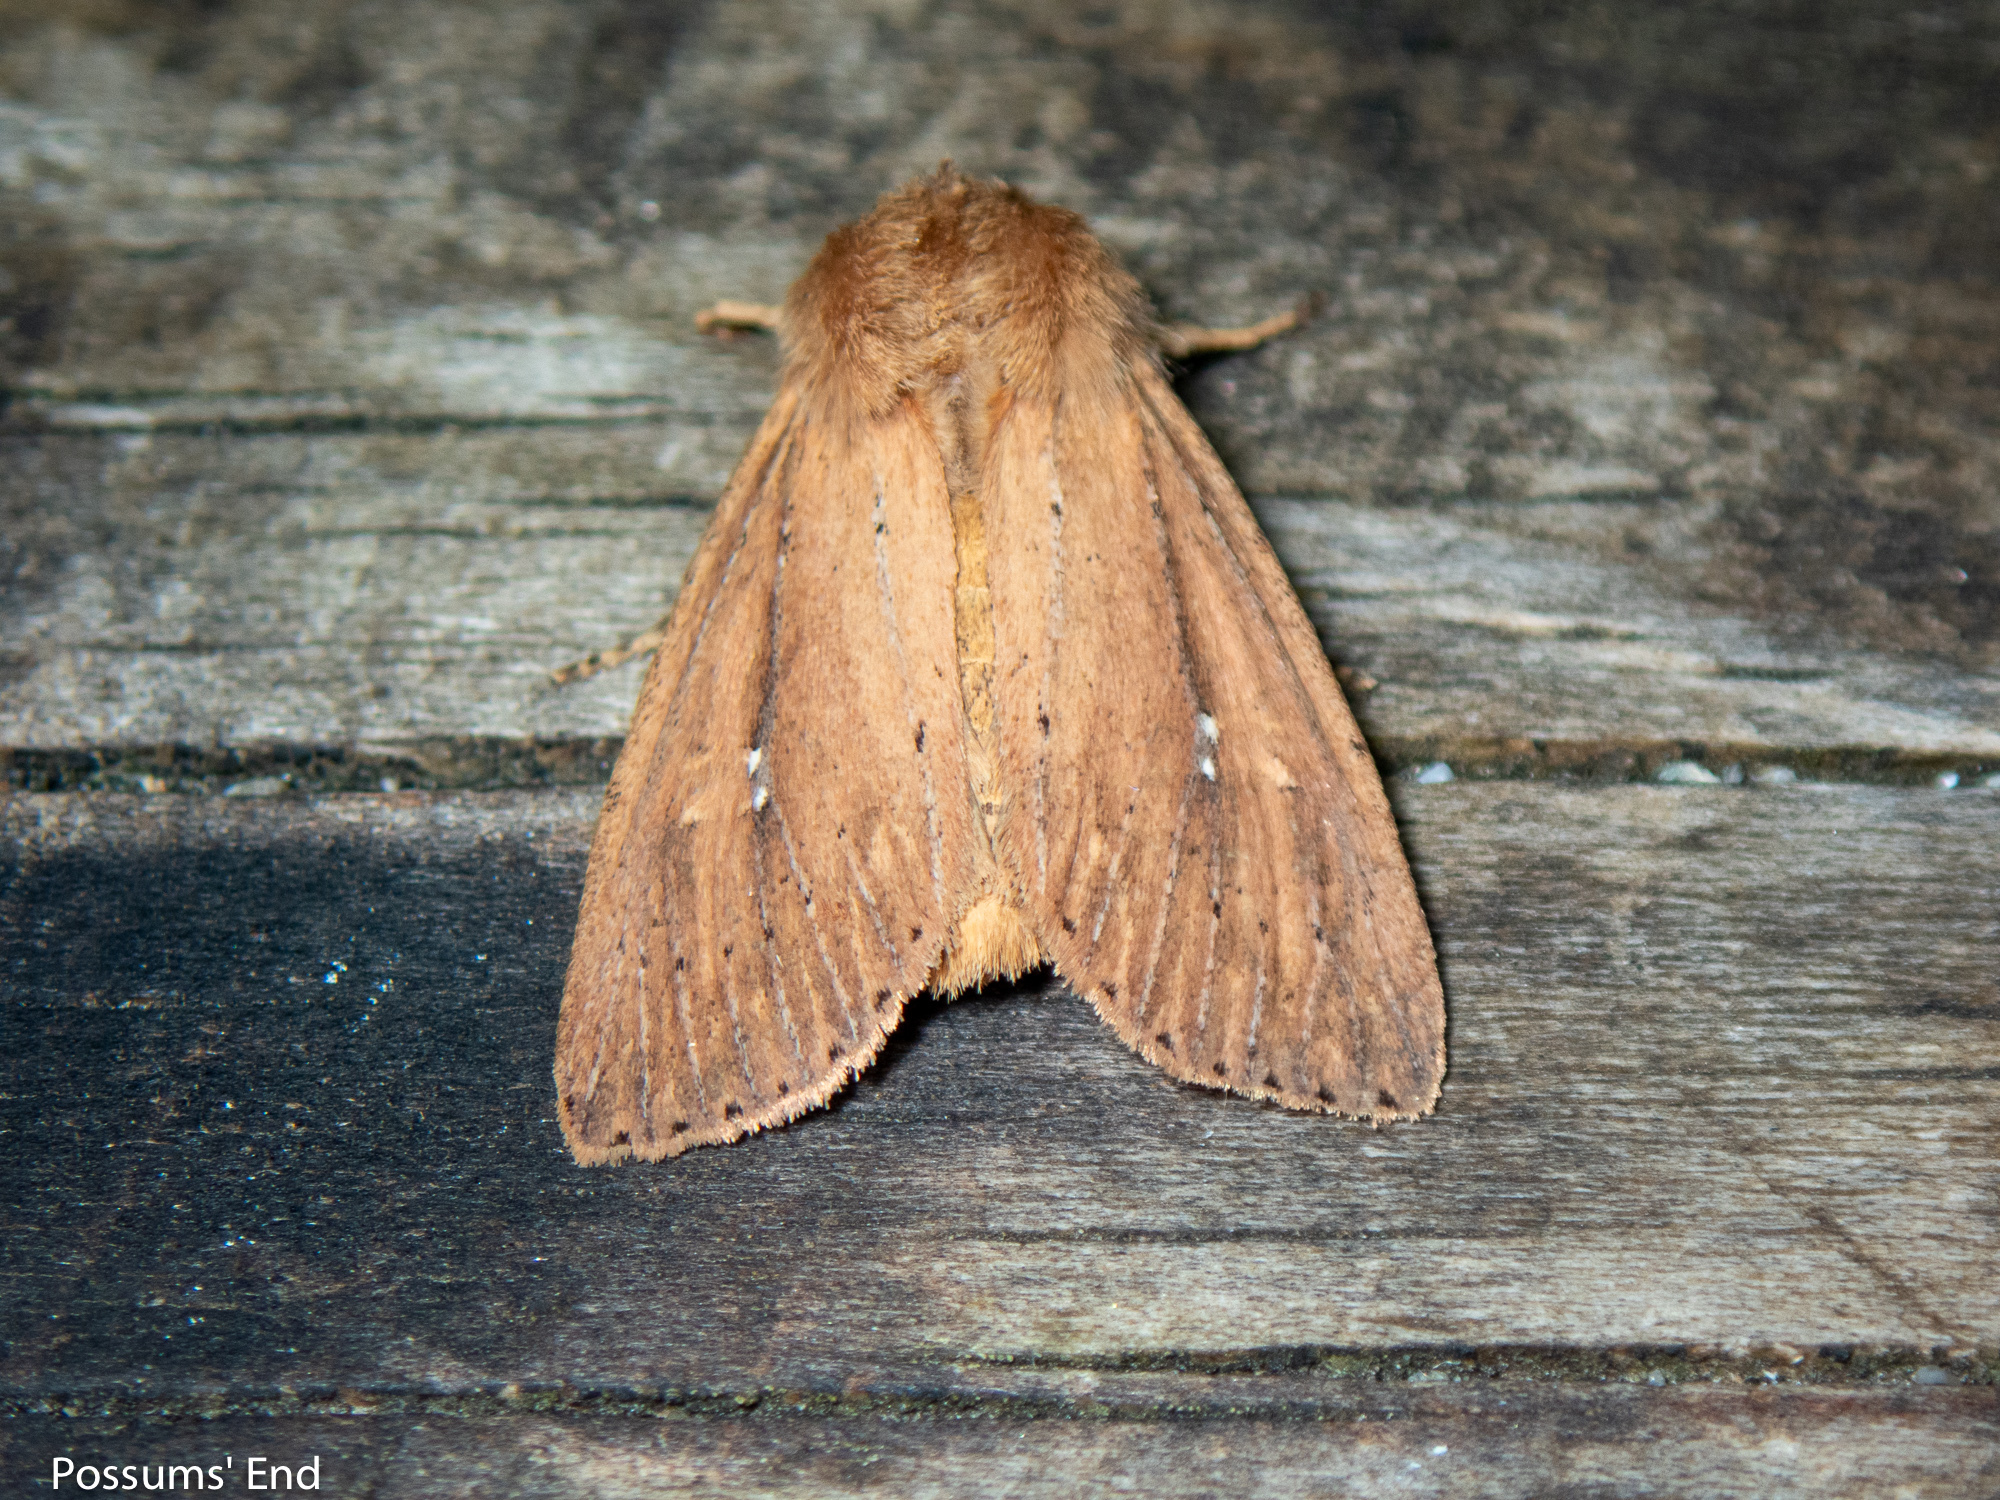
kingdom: Animalia
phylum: Arthropoda
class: Insecta
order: Lepidoptera
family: Noctuidae
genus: Ichneutica
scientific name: Ichneutica
